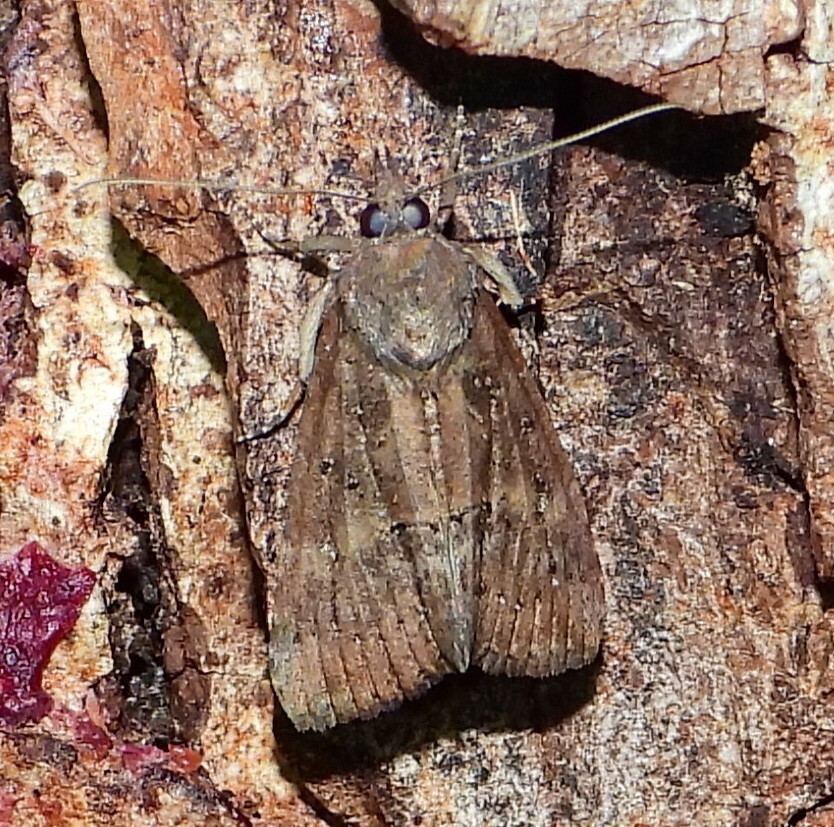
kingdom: Animalia
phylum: Arthropoda
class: Insecta
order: Lepidoptera
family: Erebidae
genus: Hypena
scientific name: Hypena scabra
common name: Green cloverworm
